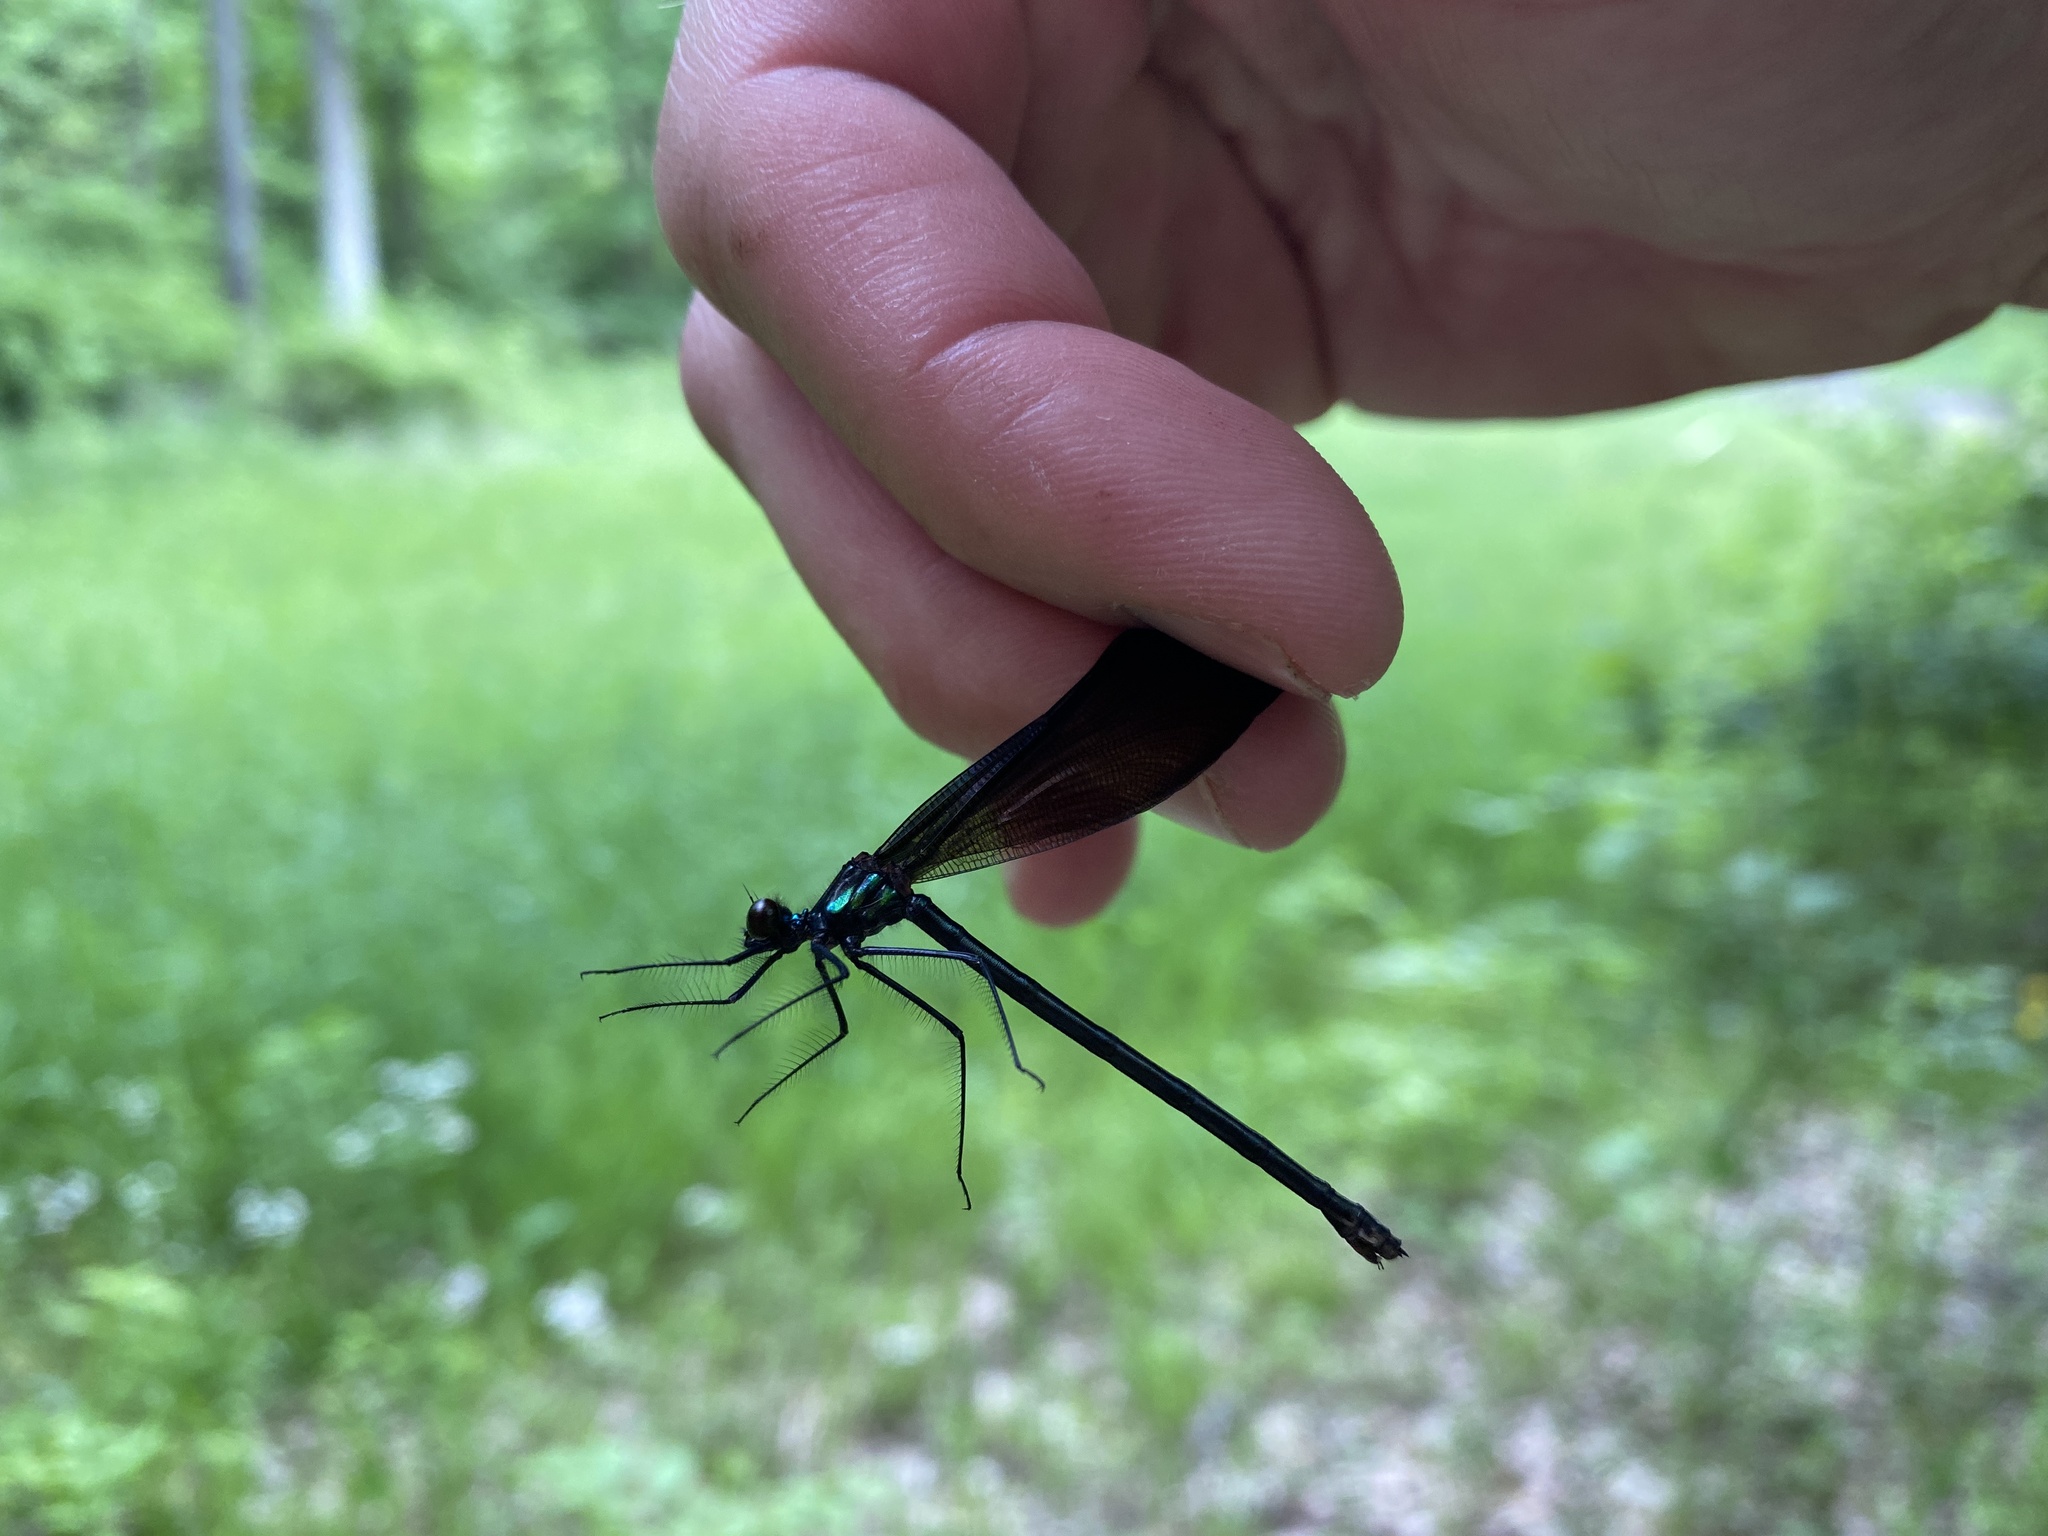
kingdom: Animalia
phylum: Arthropoda
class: Insecta
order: Odonata
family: Calopterygidae
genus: Calopteryx
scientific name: Calopteryx maculata
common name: Ebony jewelwing
